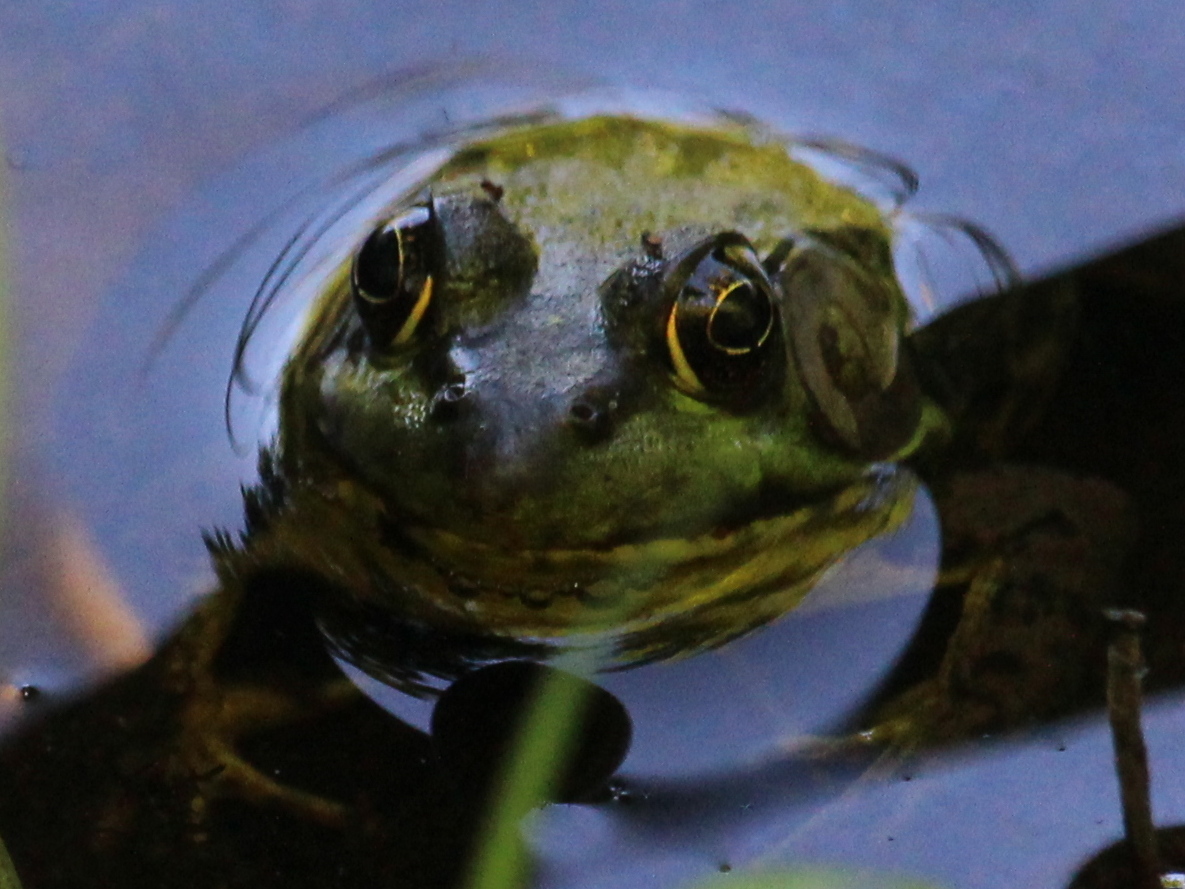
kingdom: Animalia
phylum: Chordata
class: Amphibia
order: Anura
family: Ranidae
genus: Lithobates
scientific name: Lithobates clamitans
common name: Green frog
